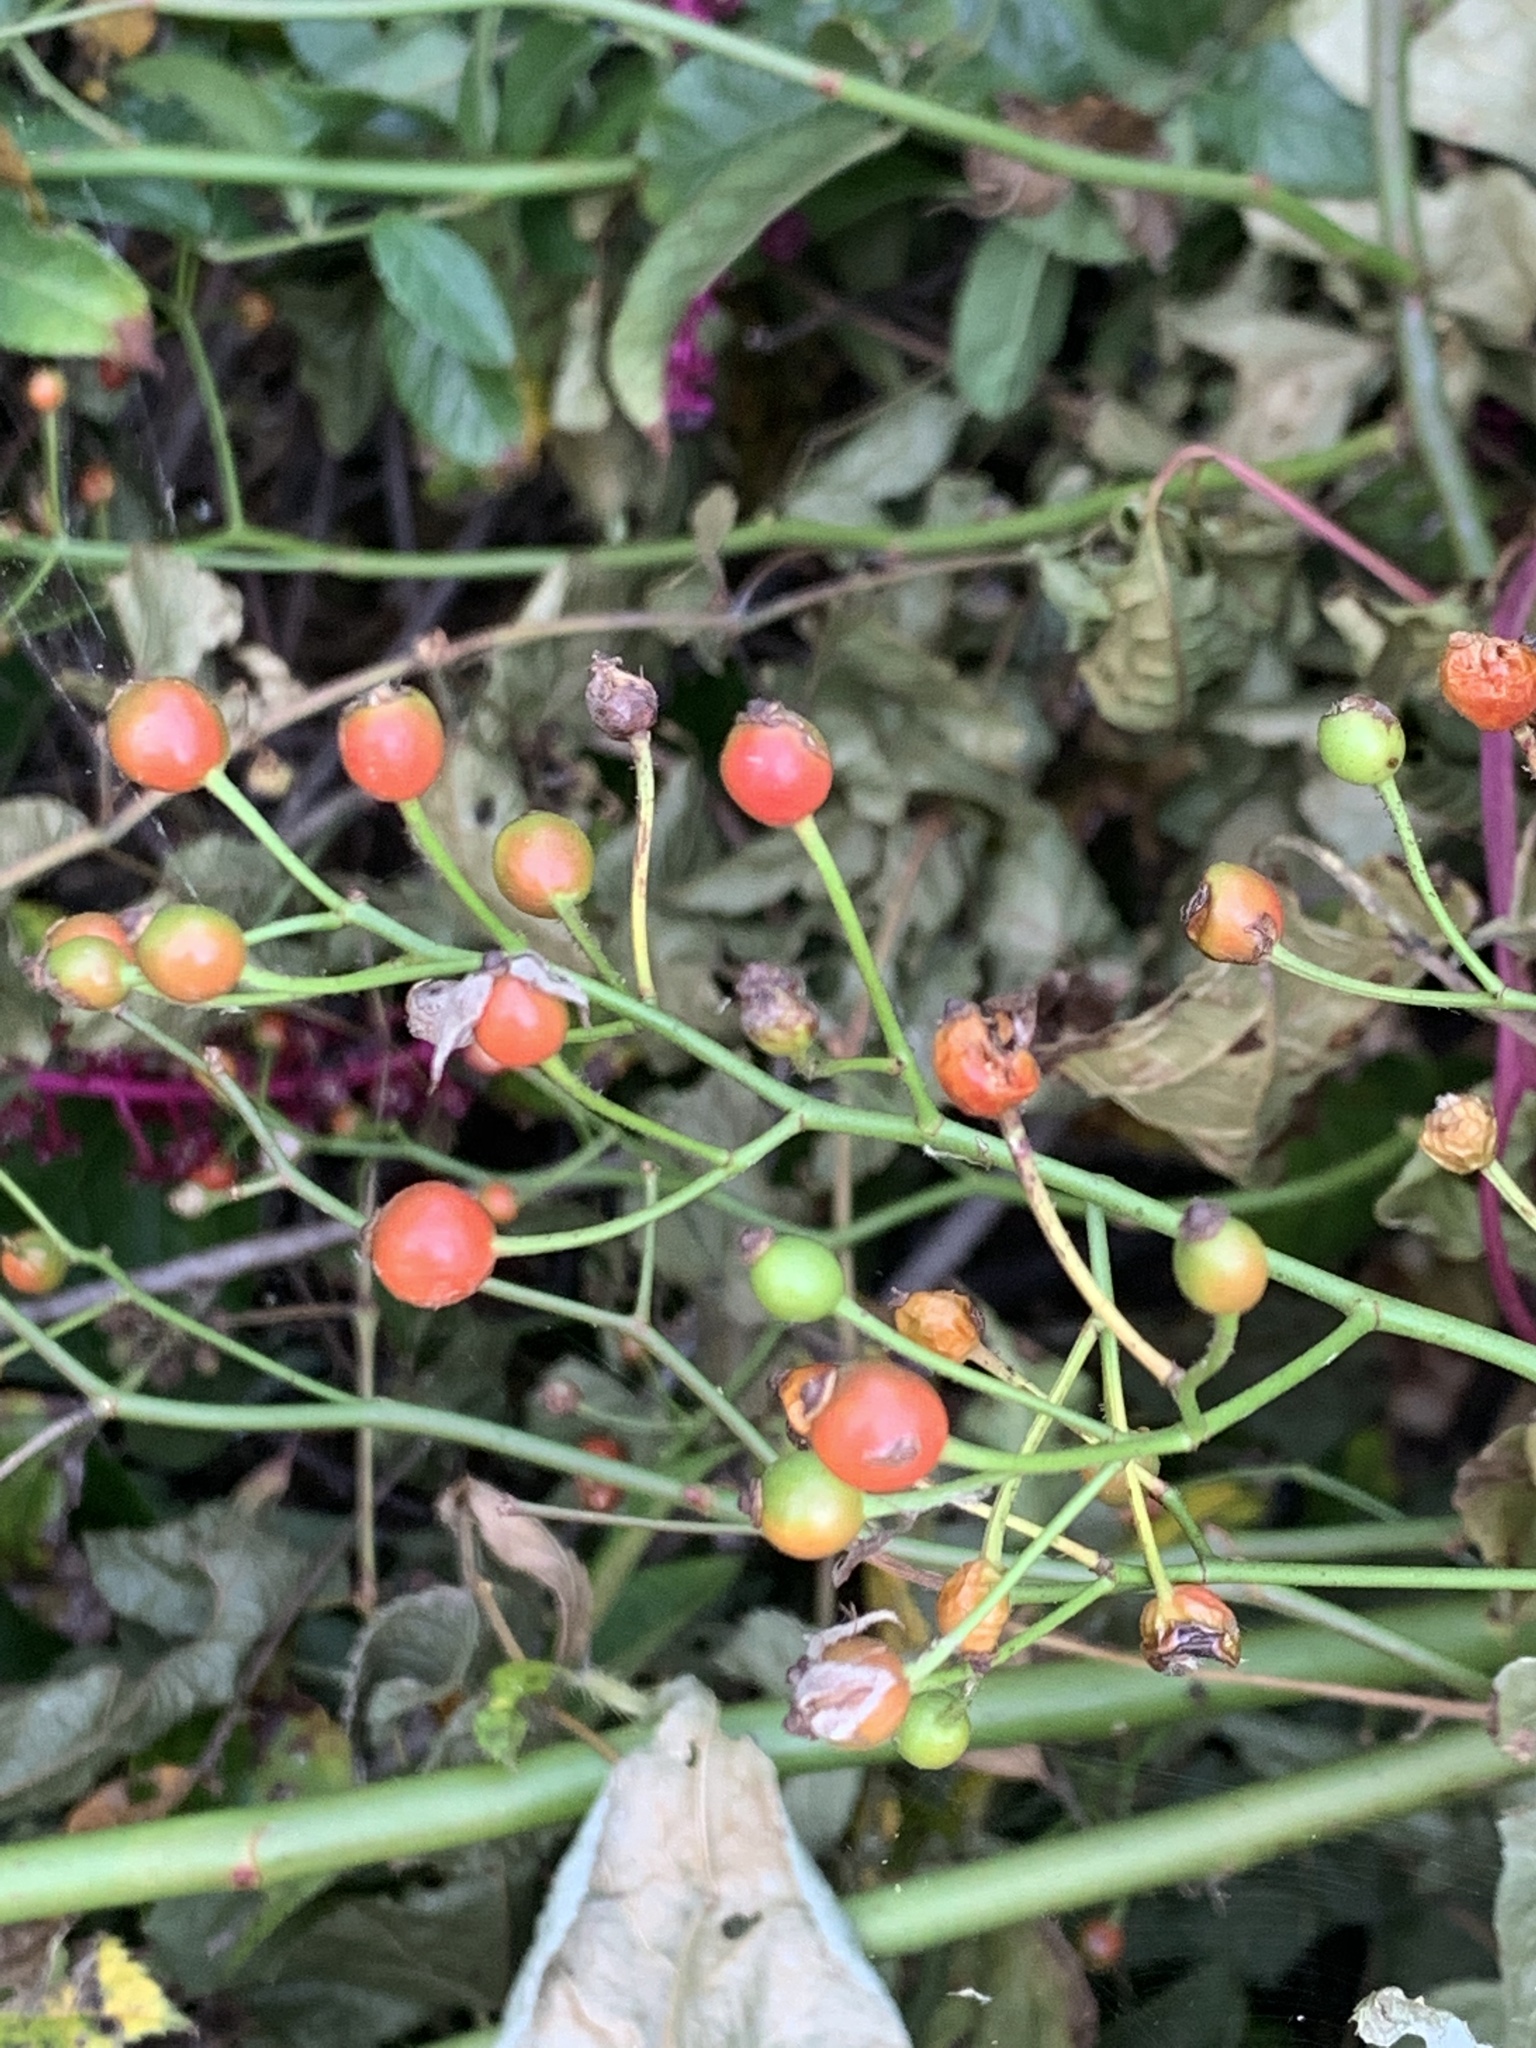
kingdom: Plantae
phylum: Tracheophyta
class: Magnoliopsida
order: Rosales
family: Rosaceae
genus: Rosa
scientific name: Rosa multiflora
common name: Multiflora rose
